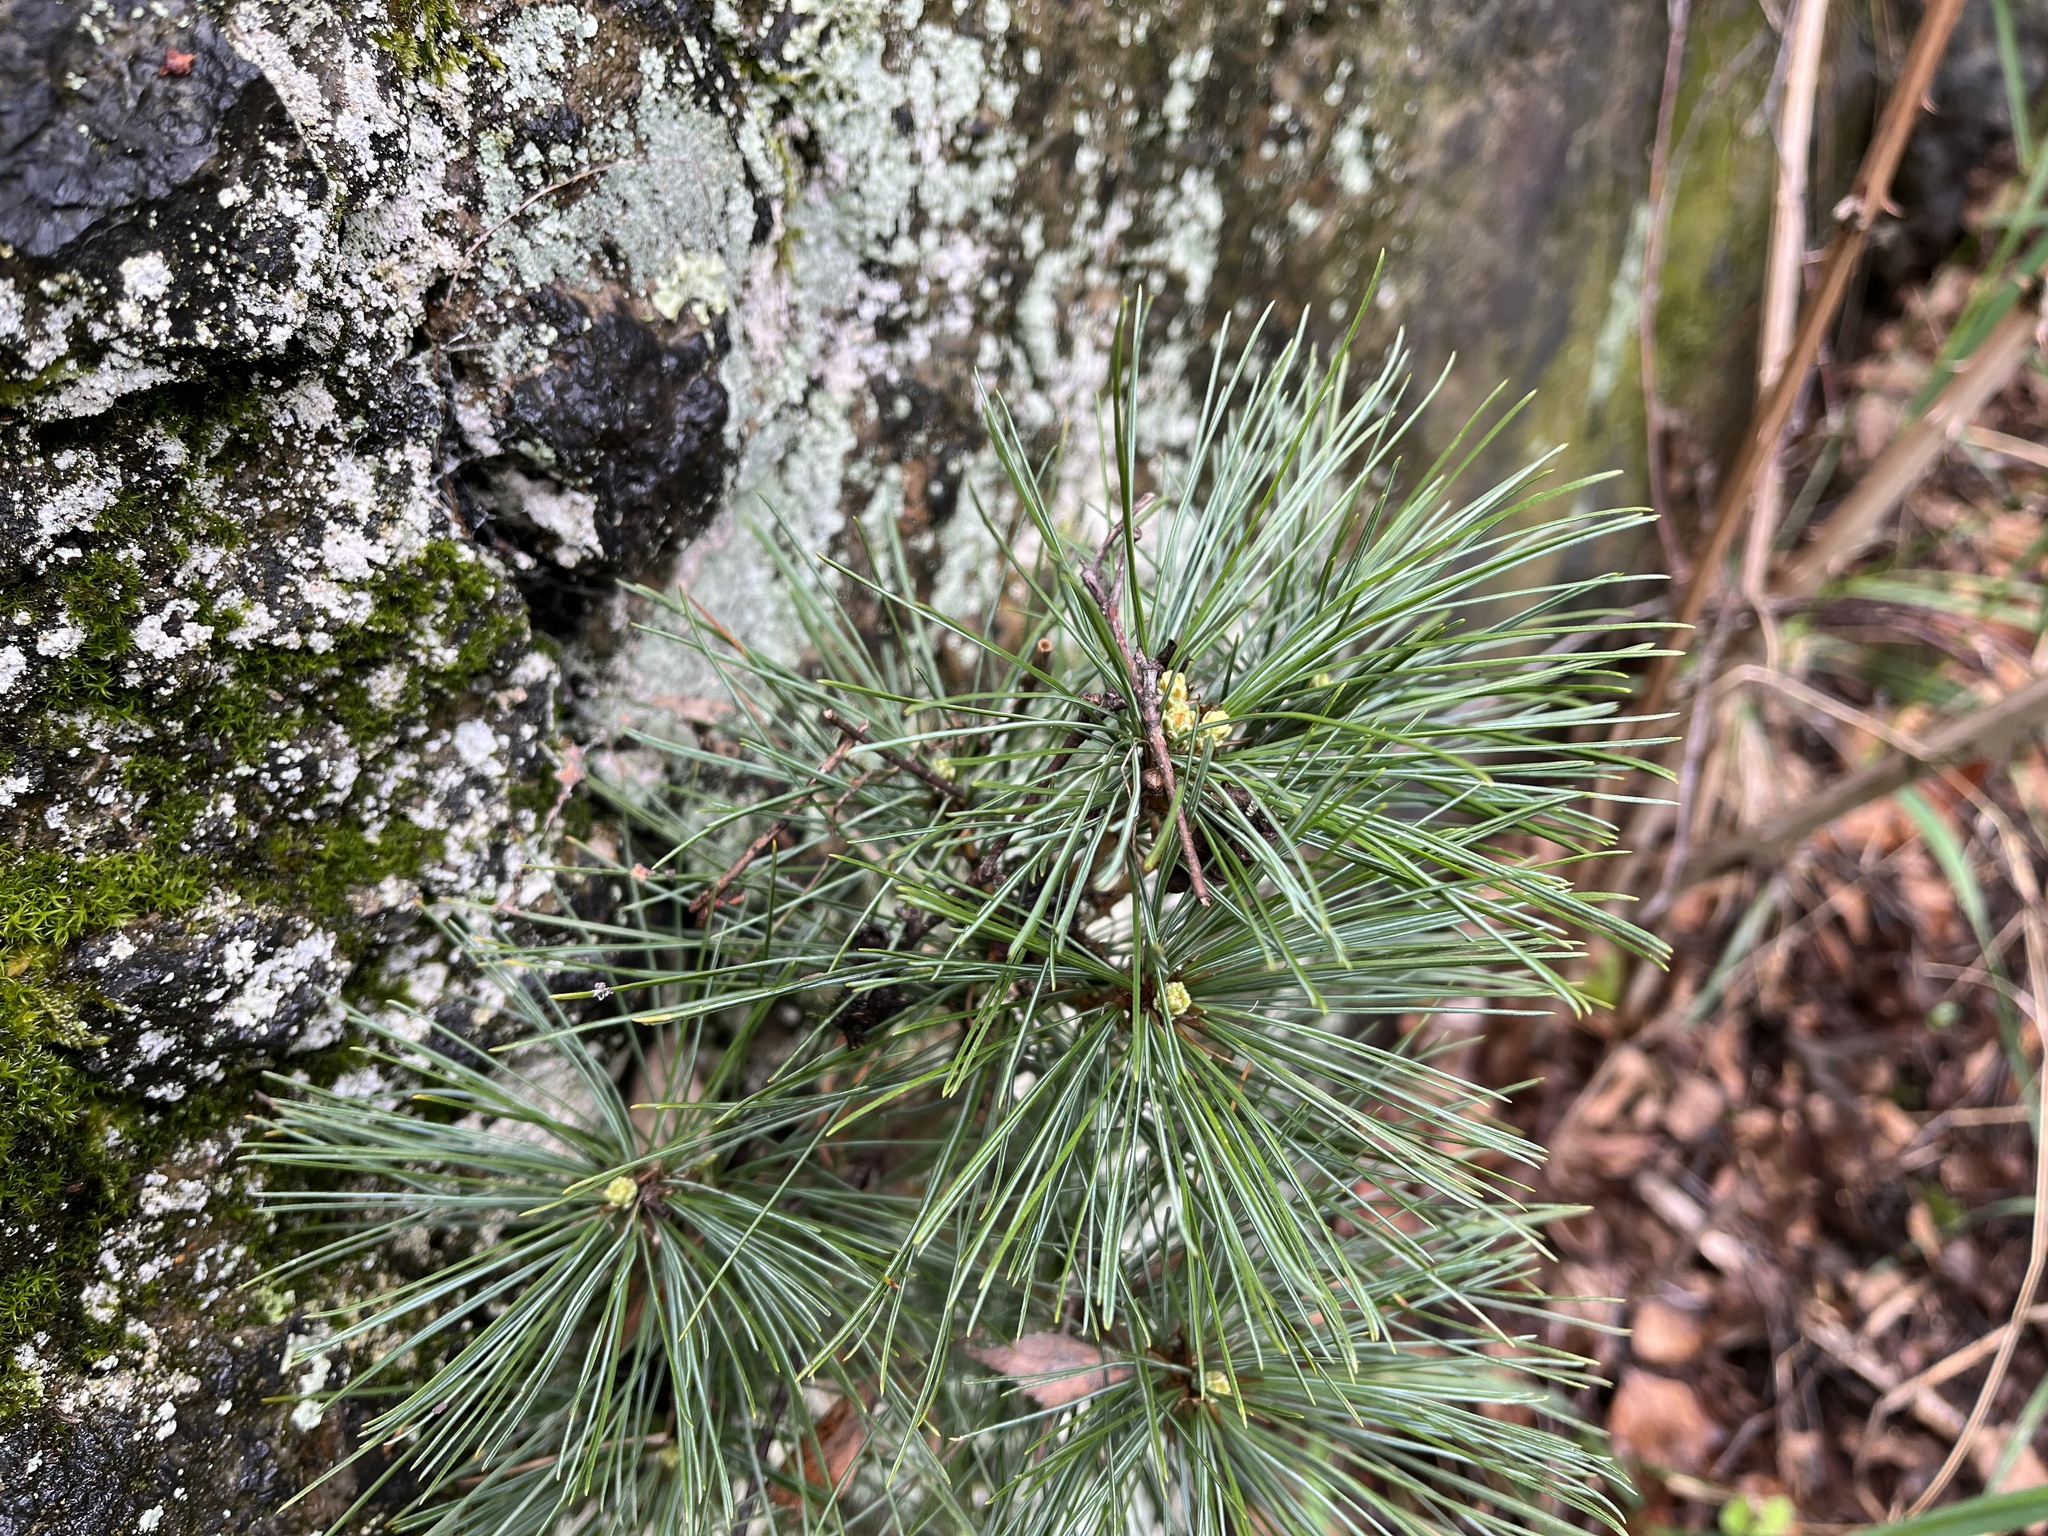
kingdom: Plantae
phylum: Tracheophyta
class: Pinopsida
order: Pinales
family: Pinaceae
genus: Pinus
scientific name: Pinus strobus
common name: Weymouth pine
